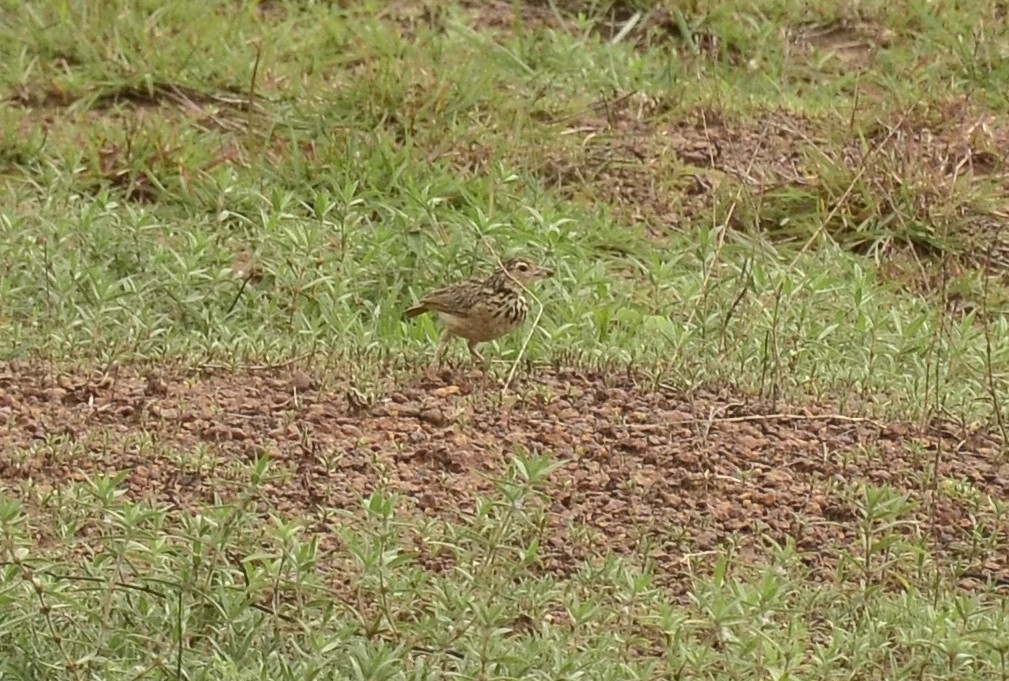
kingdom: Animalia
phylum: Chordata
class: Aves
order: Passeriformes
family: Alaudidae
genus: Mirafra
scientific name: Mirafra affinis
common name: Jerdon's bushlark
